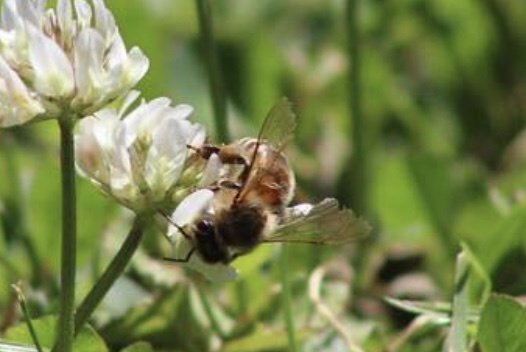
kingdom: Animalia
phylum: Arthropoda
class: Insecta
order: Hymenoptera
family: Apidae
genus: Apis
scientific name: Apis mellifera
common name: Honey bee
